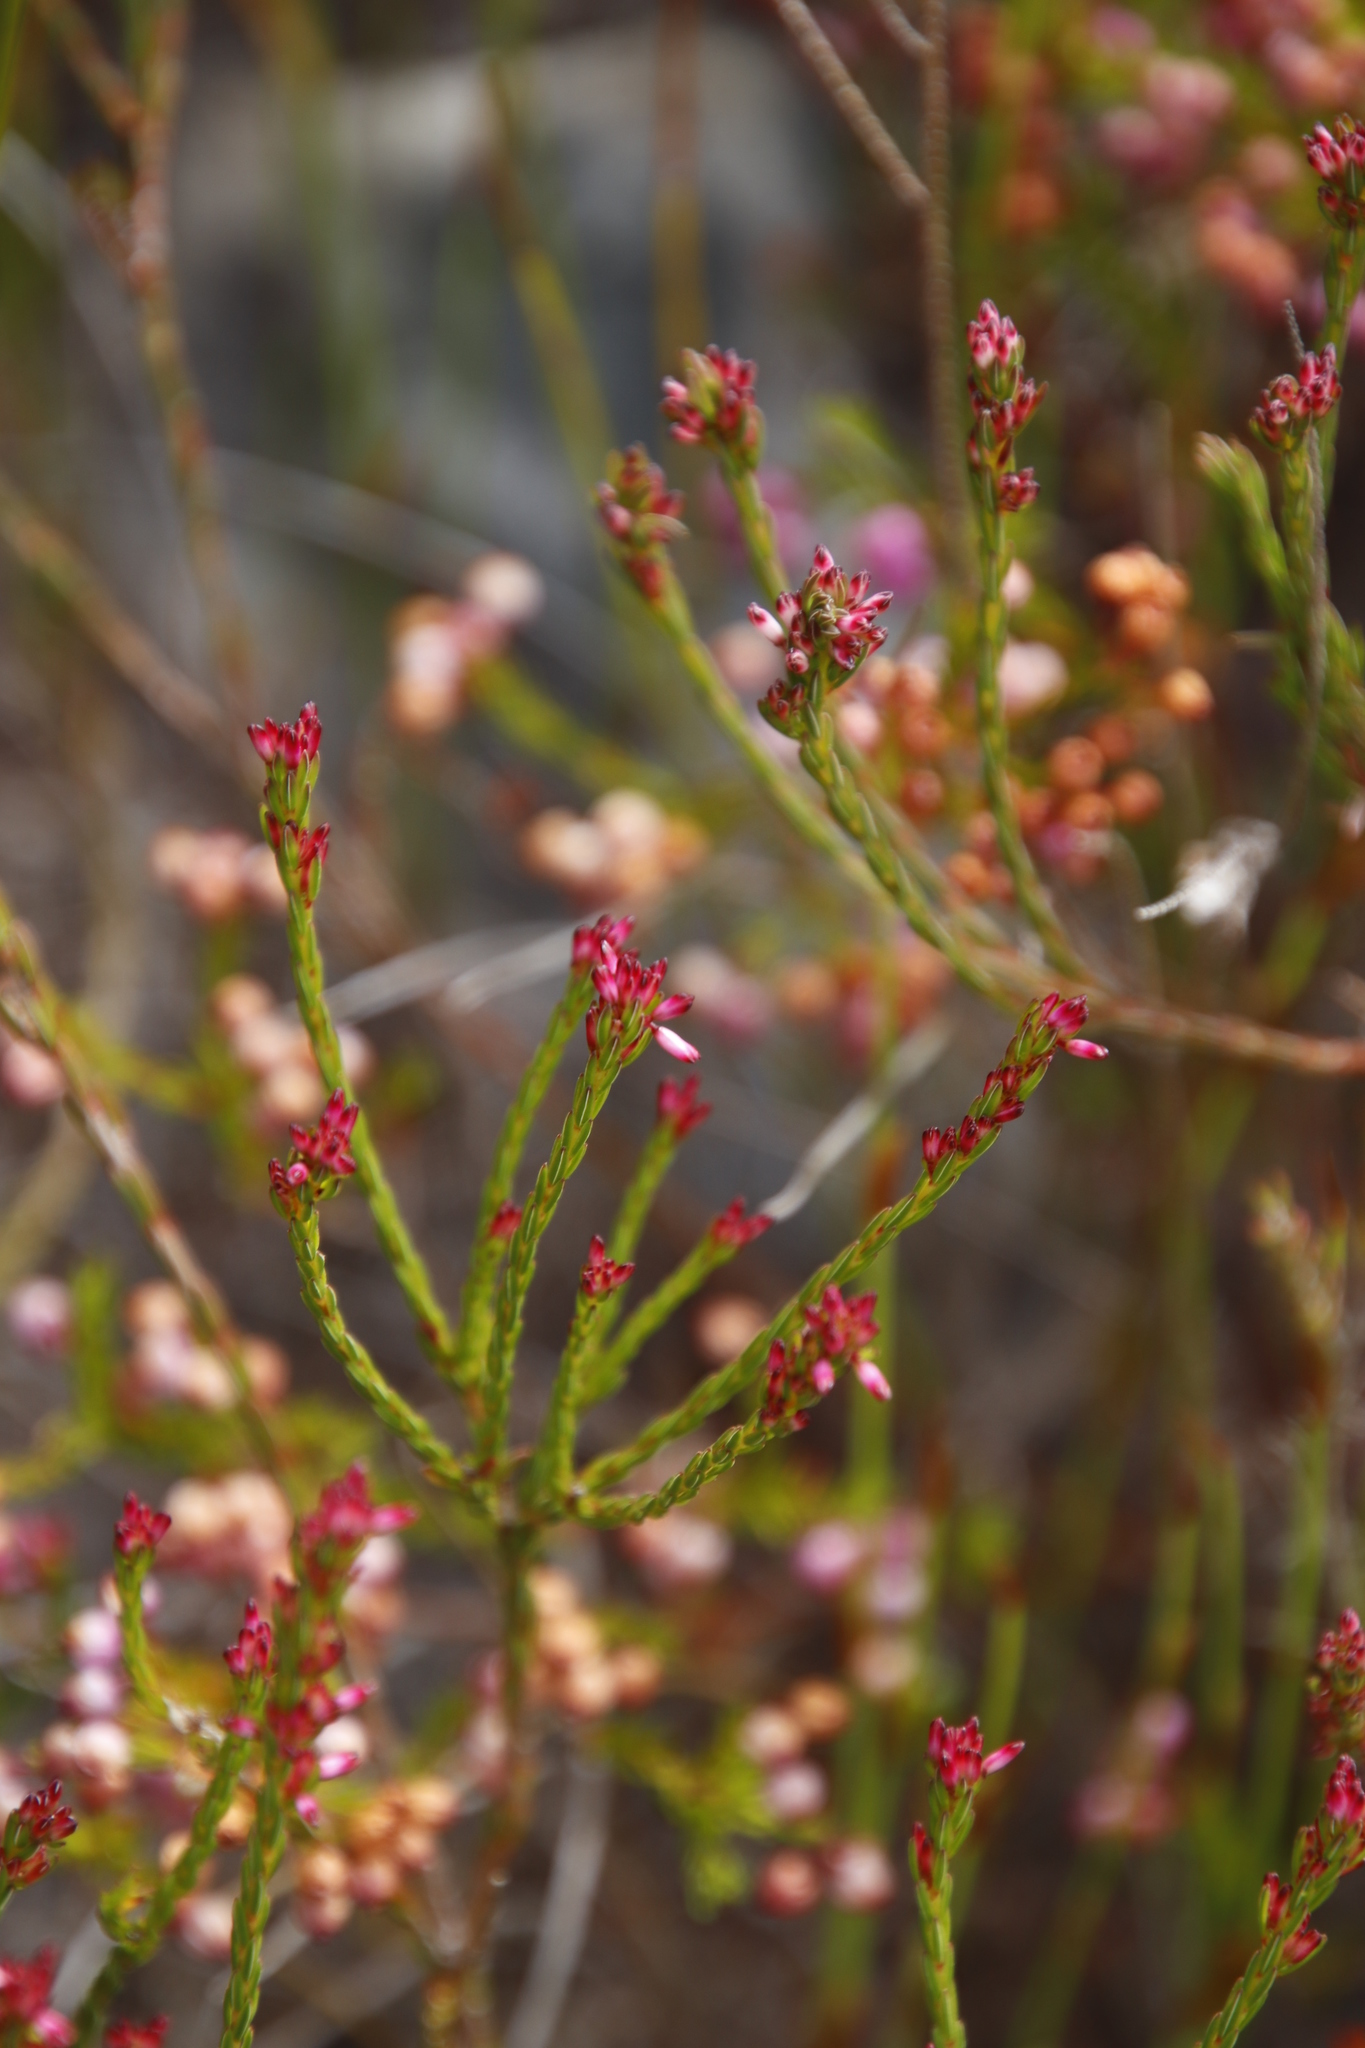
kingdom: Plantae
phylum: Tracheophyta
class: Magnoliopsida
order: Ericales
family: Ericaceae
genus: Erica
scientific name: Erica articularis
